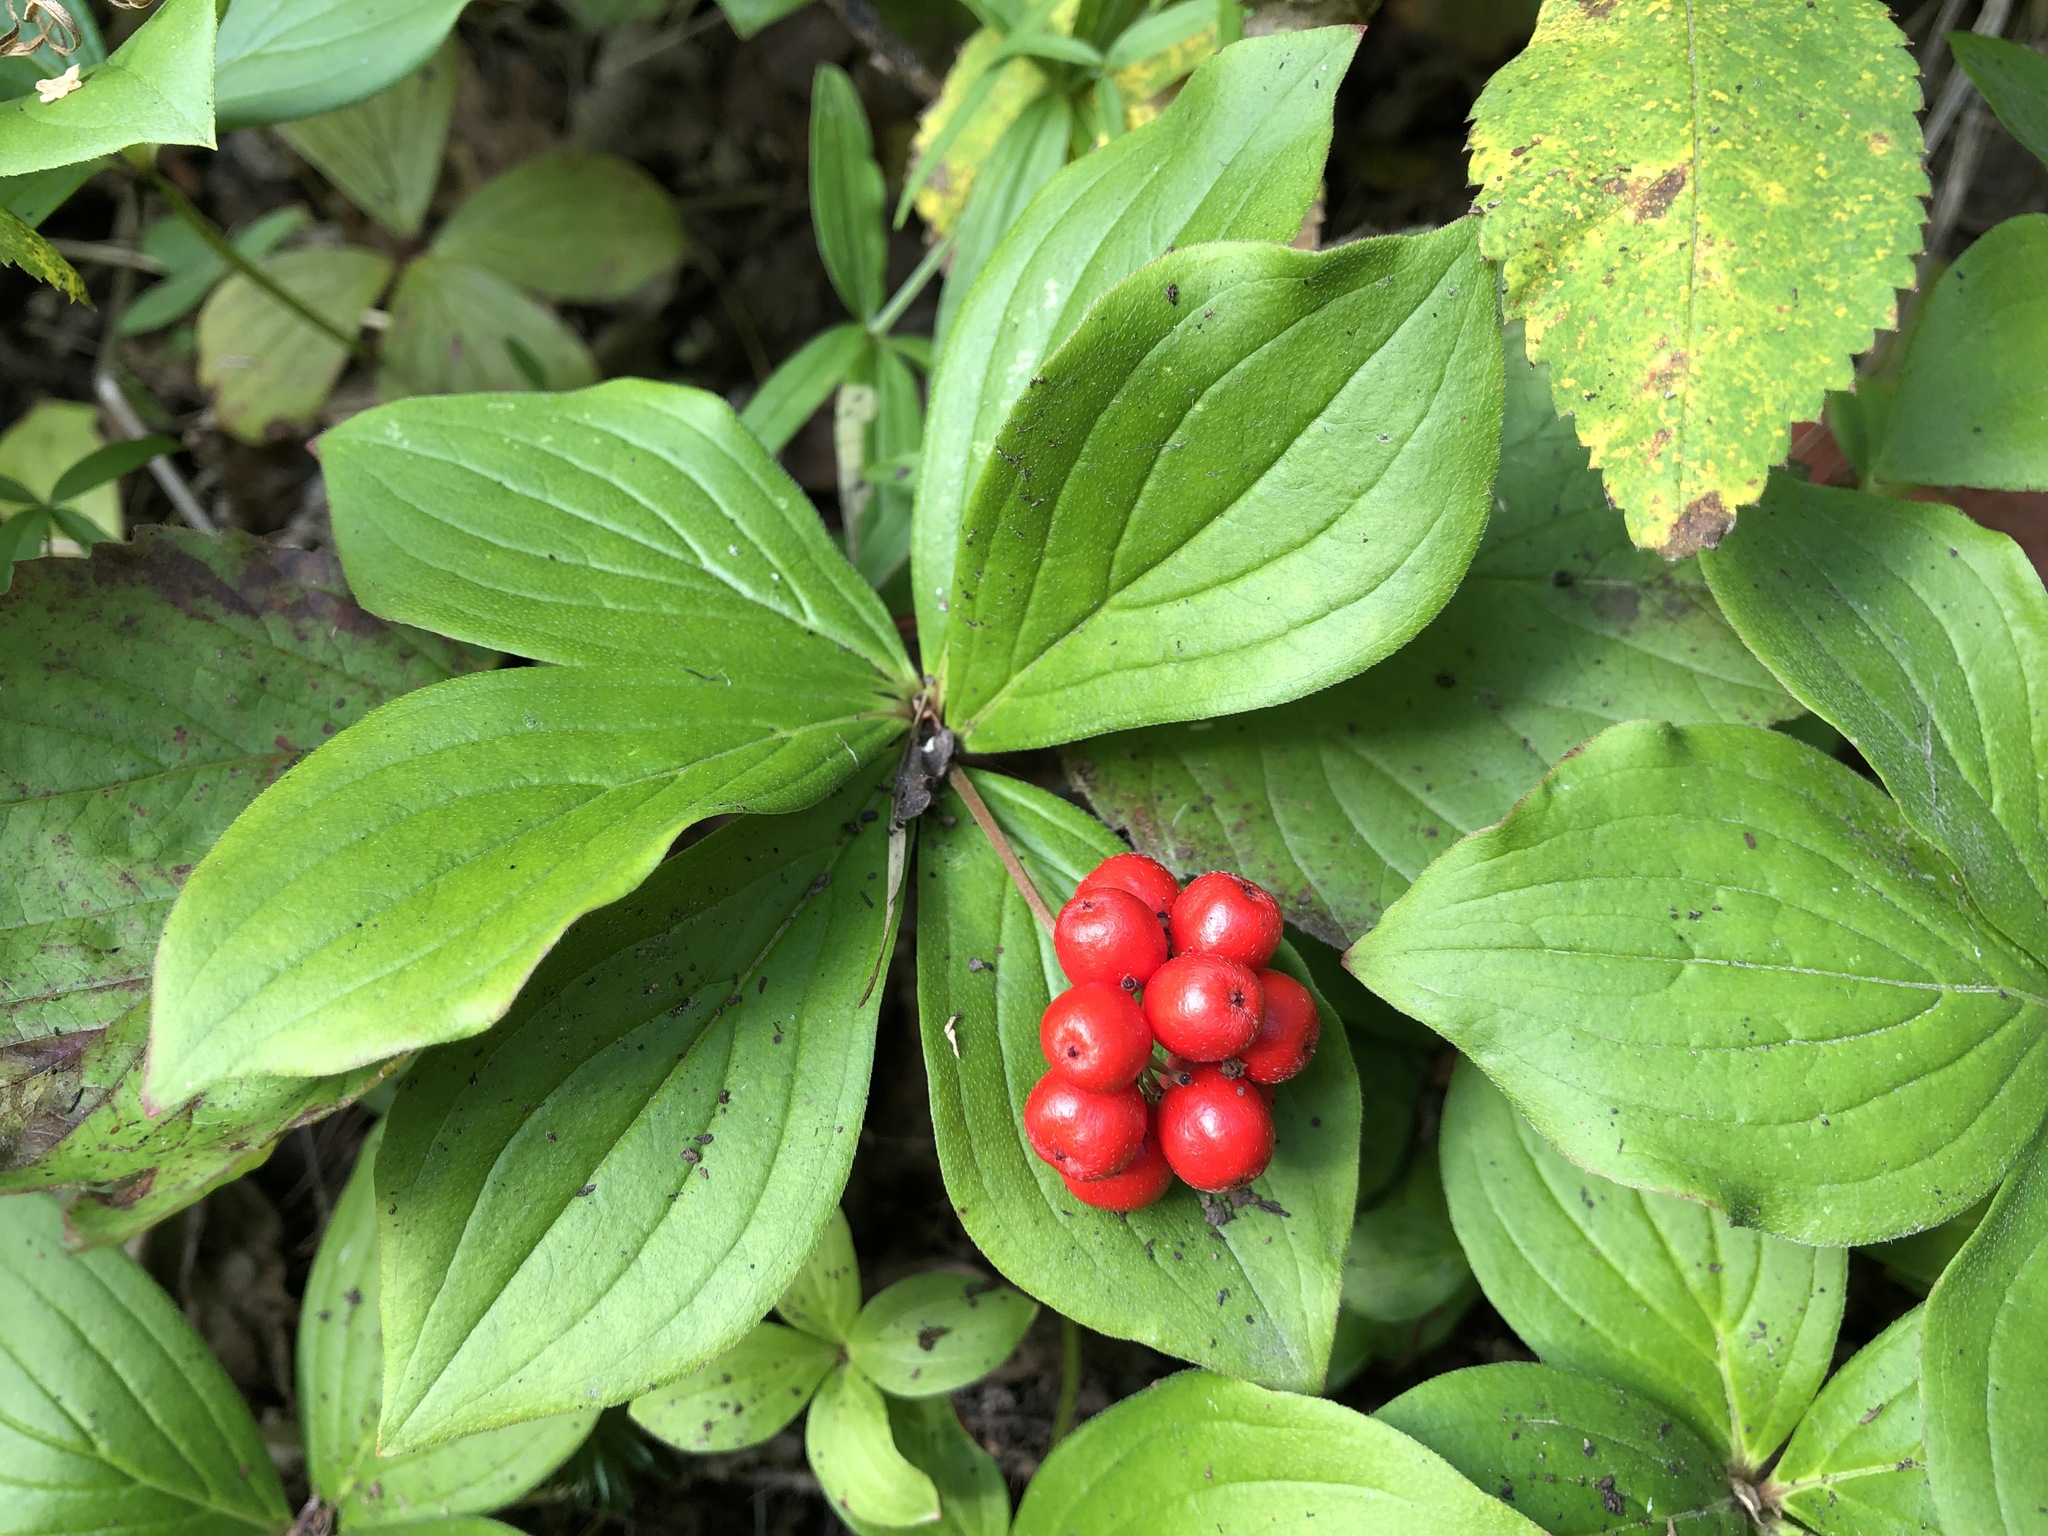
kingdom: Plantae
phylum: Tracheophyta
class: Magnoliopsida
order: Cornales
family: Cornaceae
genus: Cornus
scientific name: Cornus canadensis
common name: Creeping dogwood
